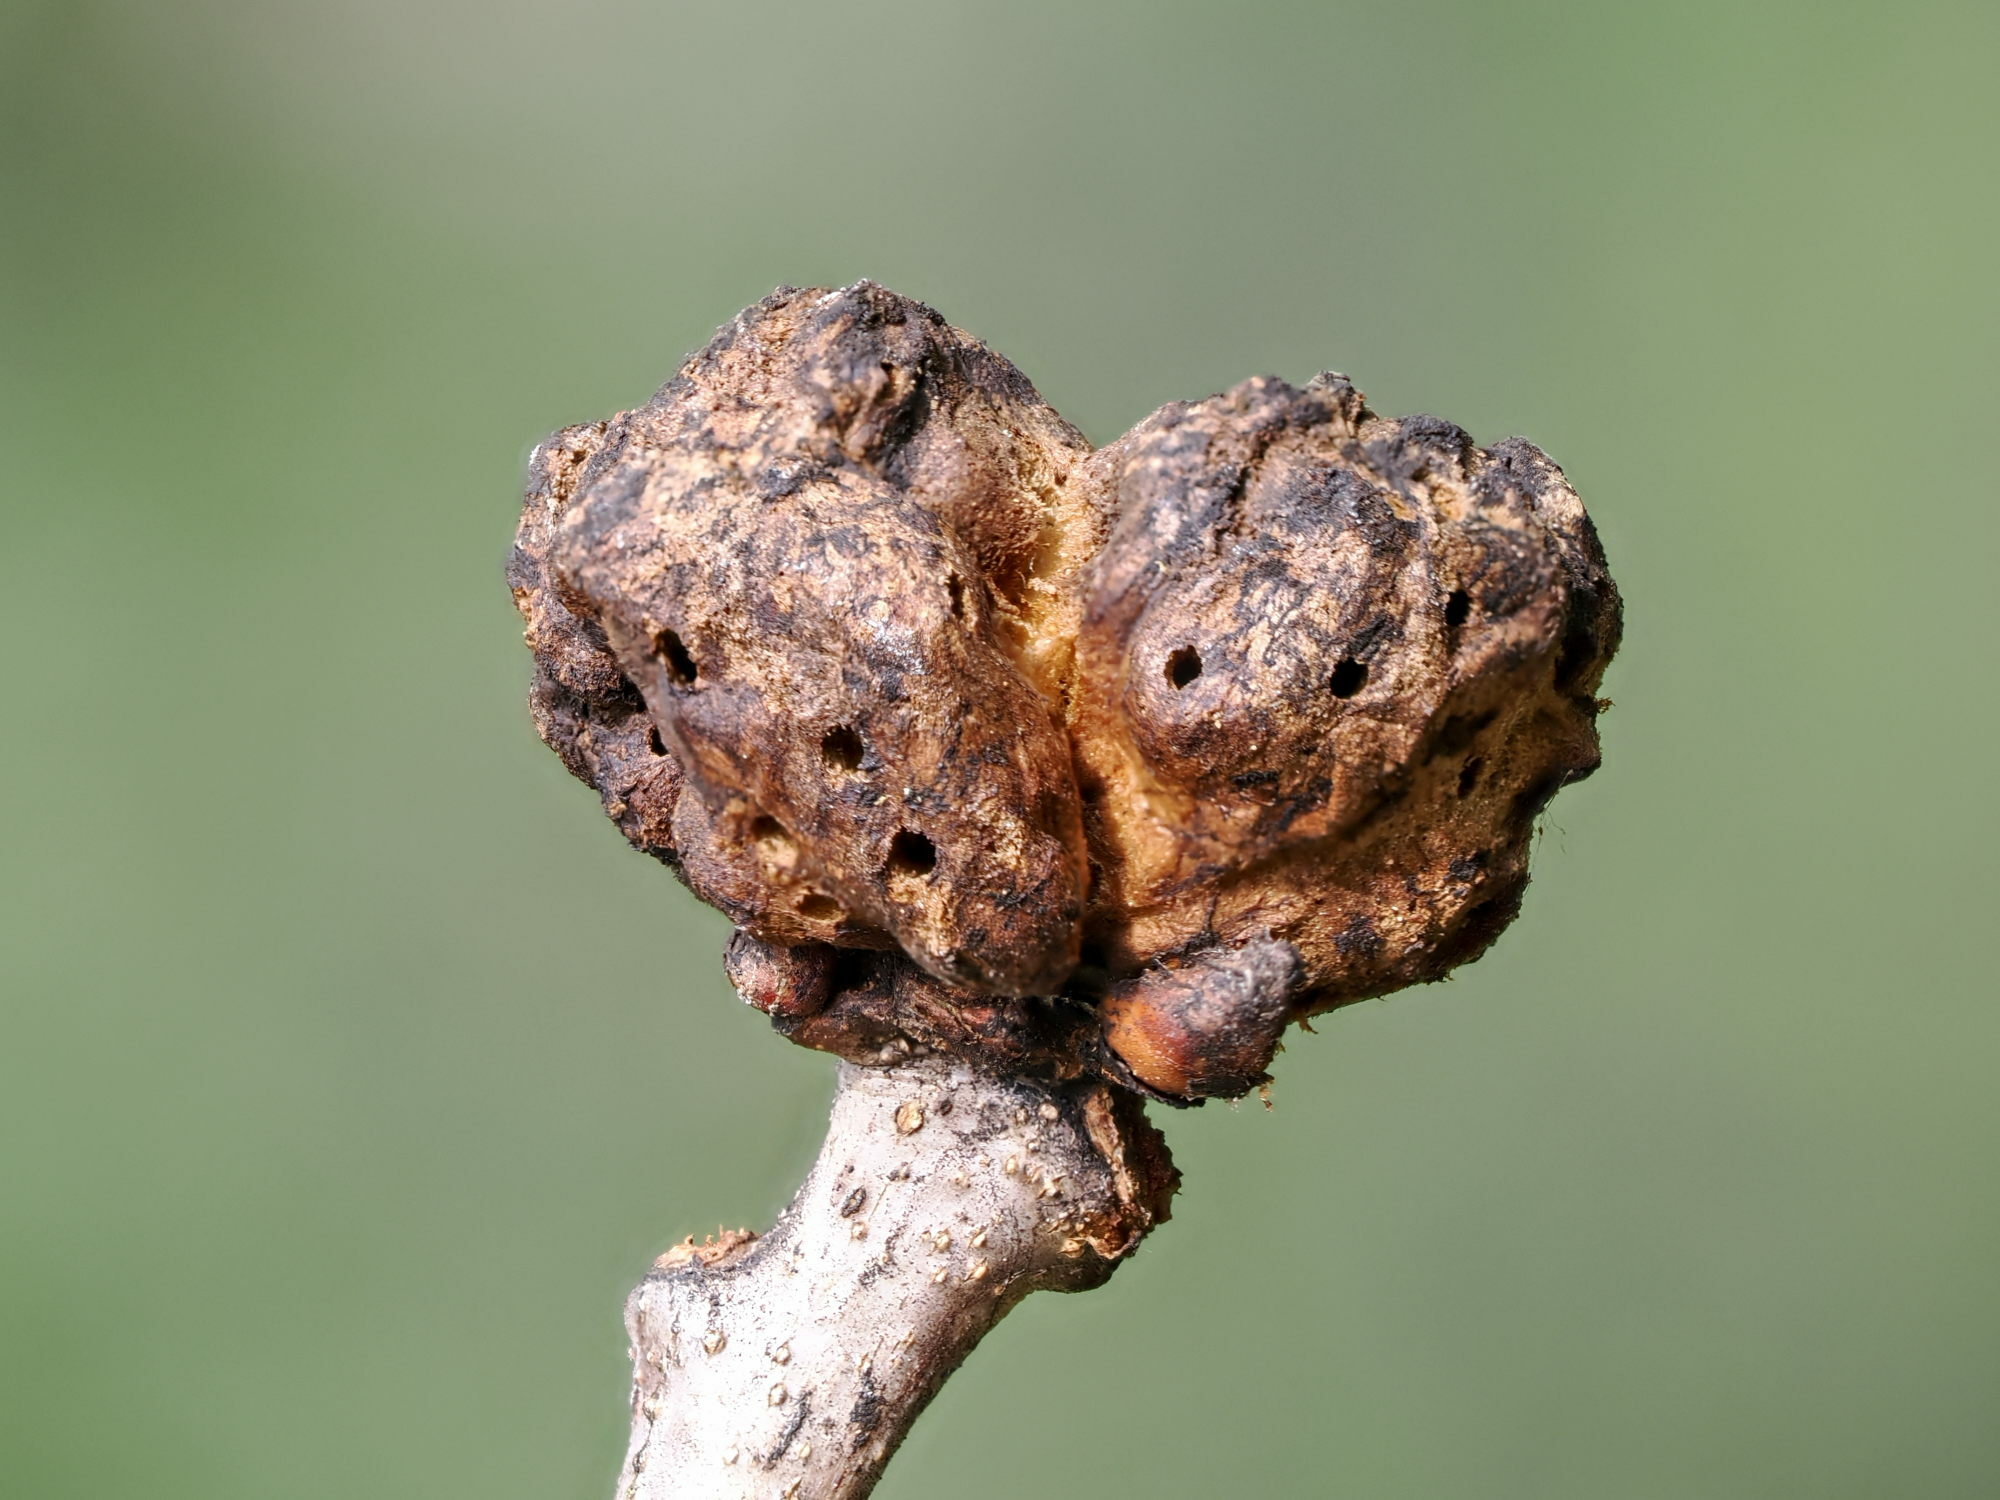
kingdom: Animalia
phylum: Arthropoda
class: Insecta
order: Hymenoptera
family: Cynipidae
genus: Biorhiza
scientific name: Biorhiza pallida
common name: Oak apple
